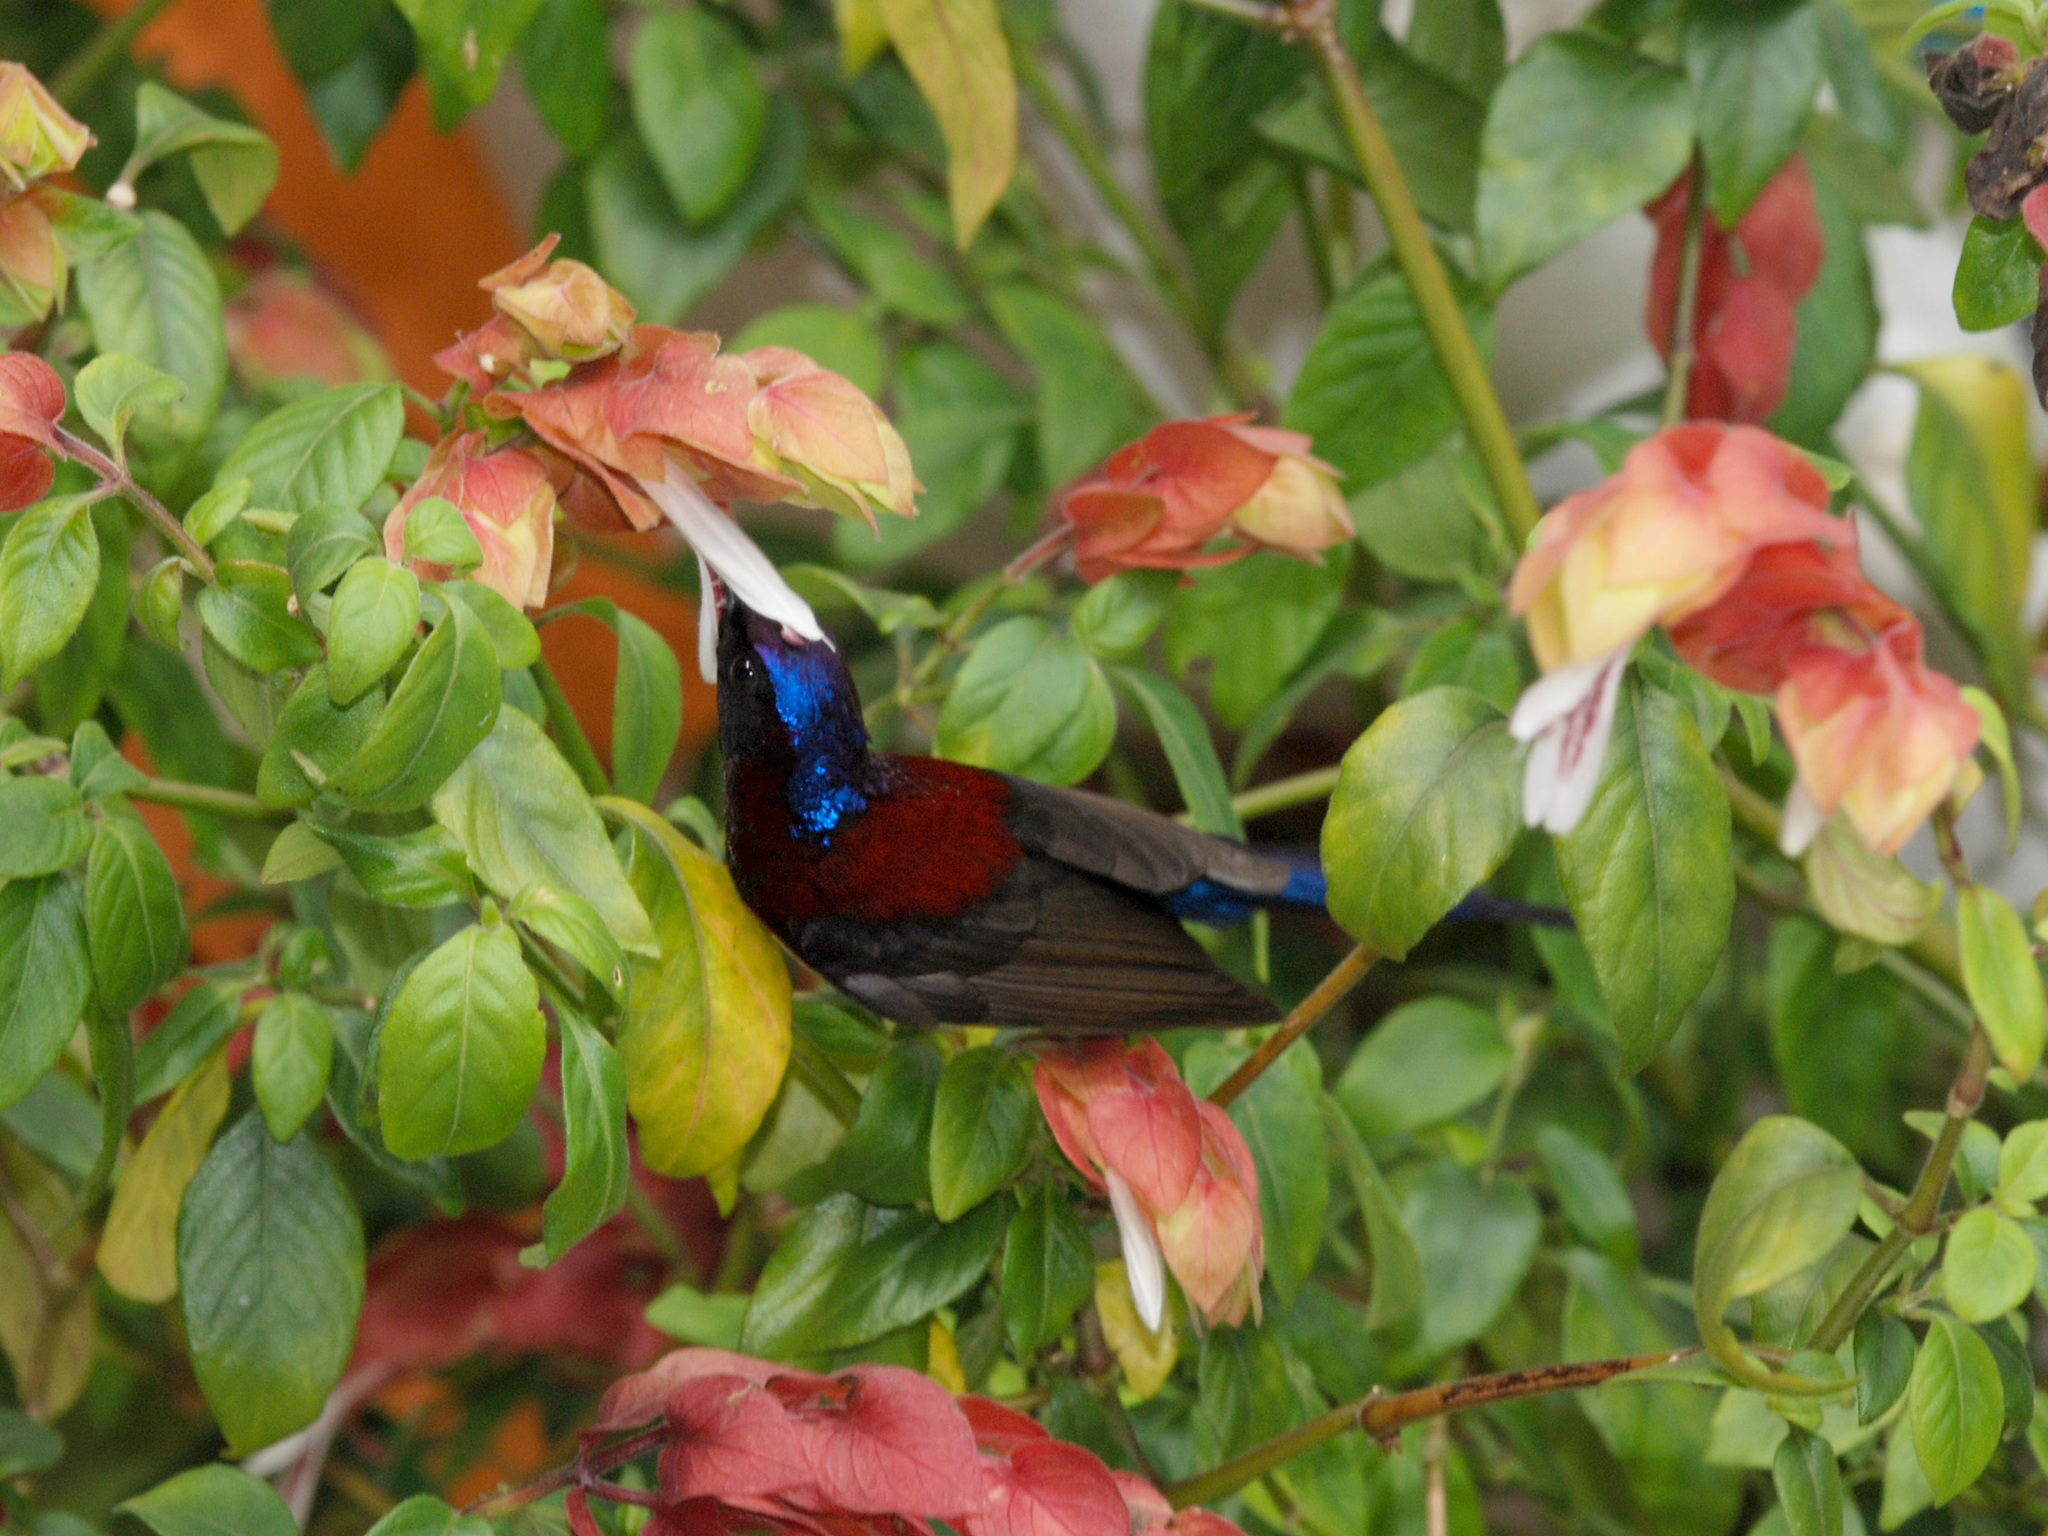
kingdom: Animalia
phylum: Chordata
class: Aves
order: Passeriformes
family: Nectariniidae
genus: Aethopyga
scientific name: Aethopyga saturata
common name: Black-throated sunbird
